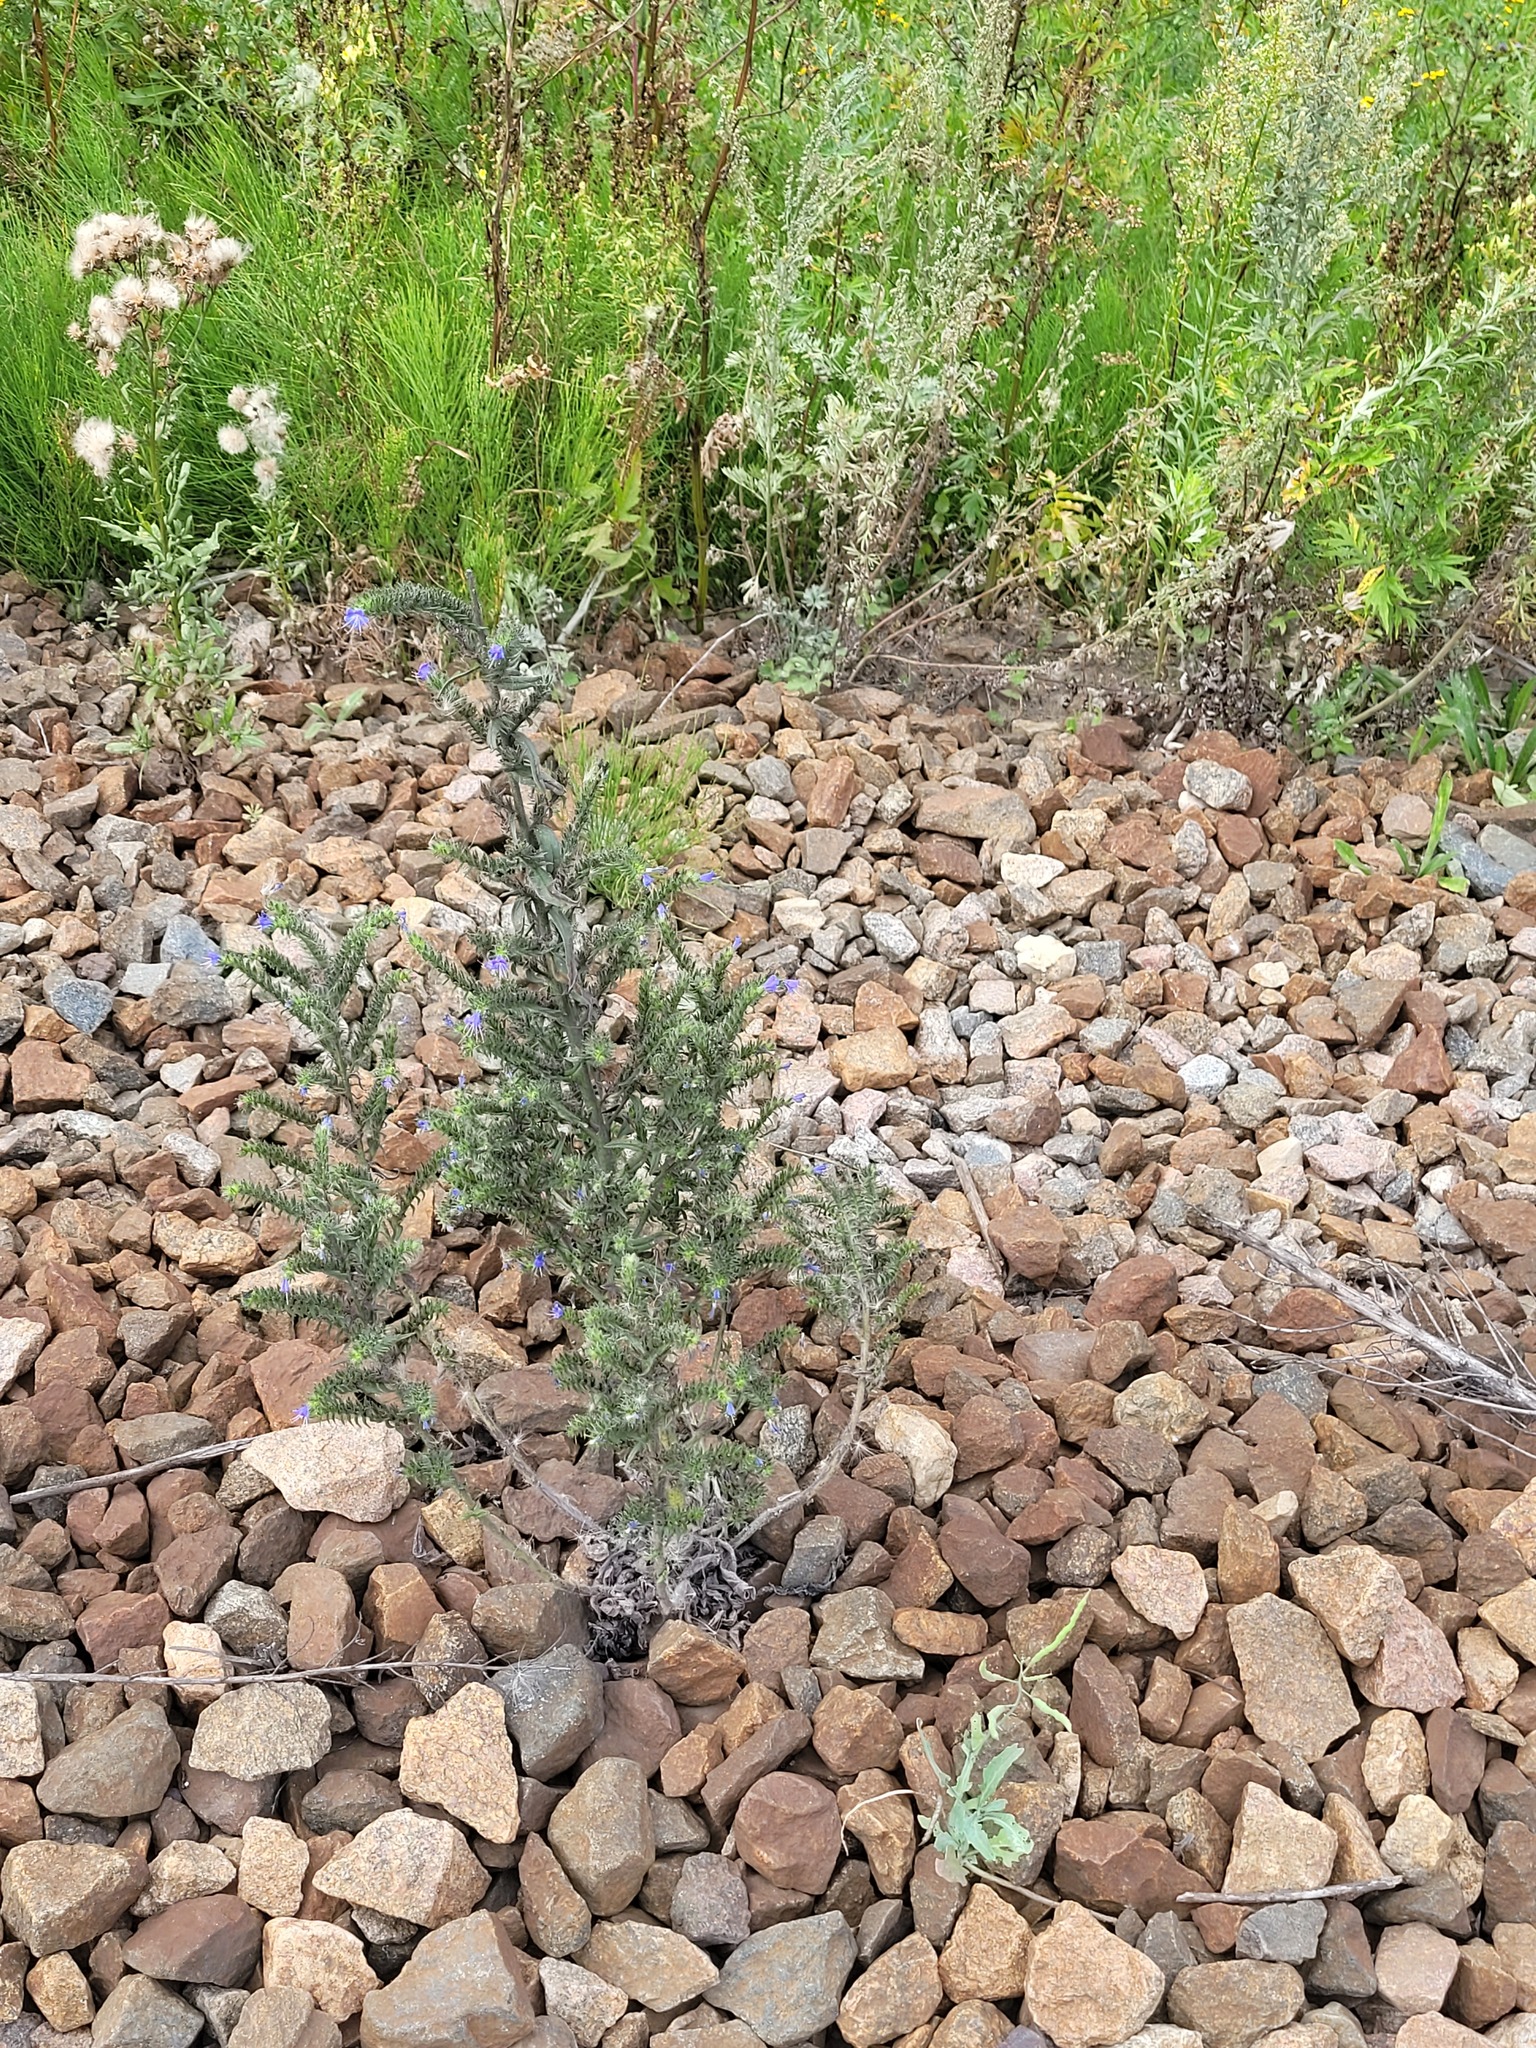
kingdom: Plantae
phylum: Tracheophyta
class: Magnoliopsida
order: Boraginales
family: Boraginaceae
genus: Echium
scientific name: Echium vulgare
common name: Common viper's bugloss
